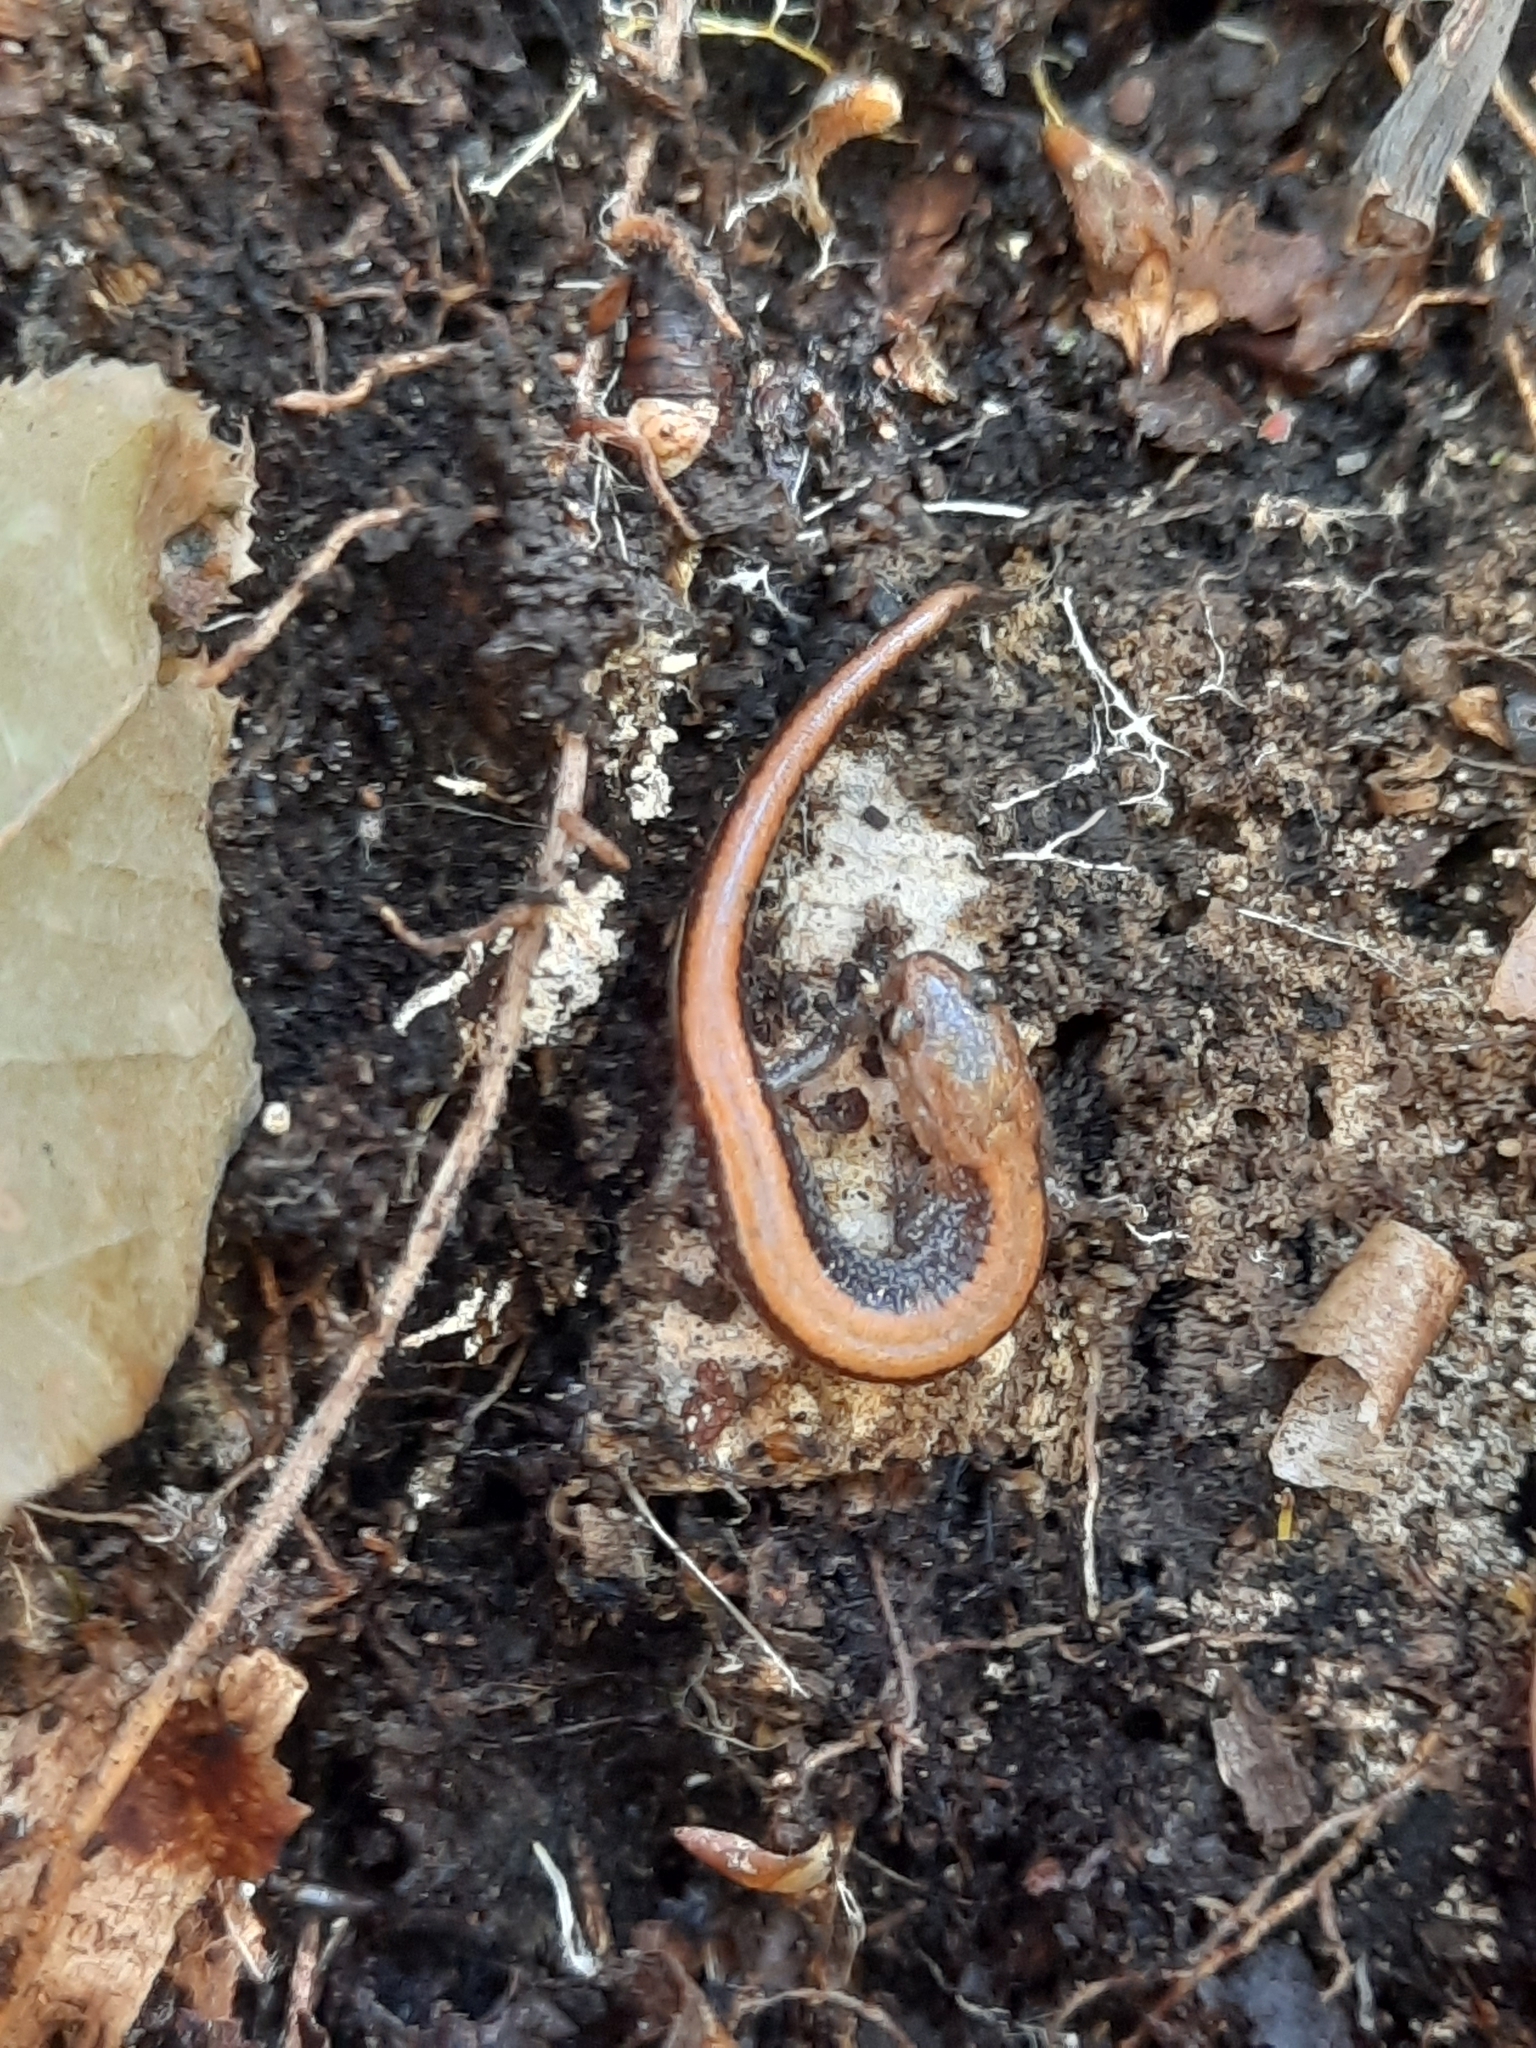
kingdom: Animalia
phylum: Chordata
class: Amphibia
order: Caudata
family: Plethodontidae
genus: Plethodon
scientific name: Plethodon cinereus
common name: Redback salamander
